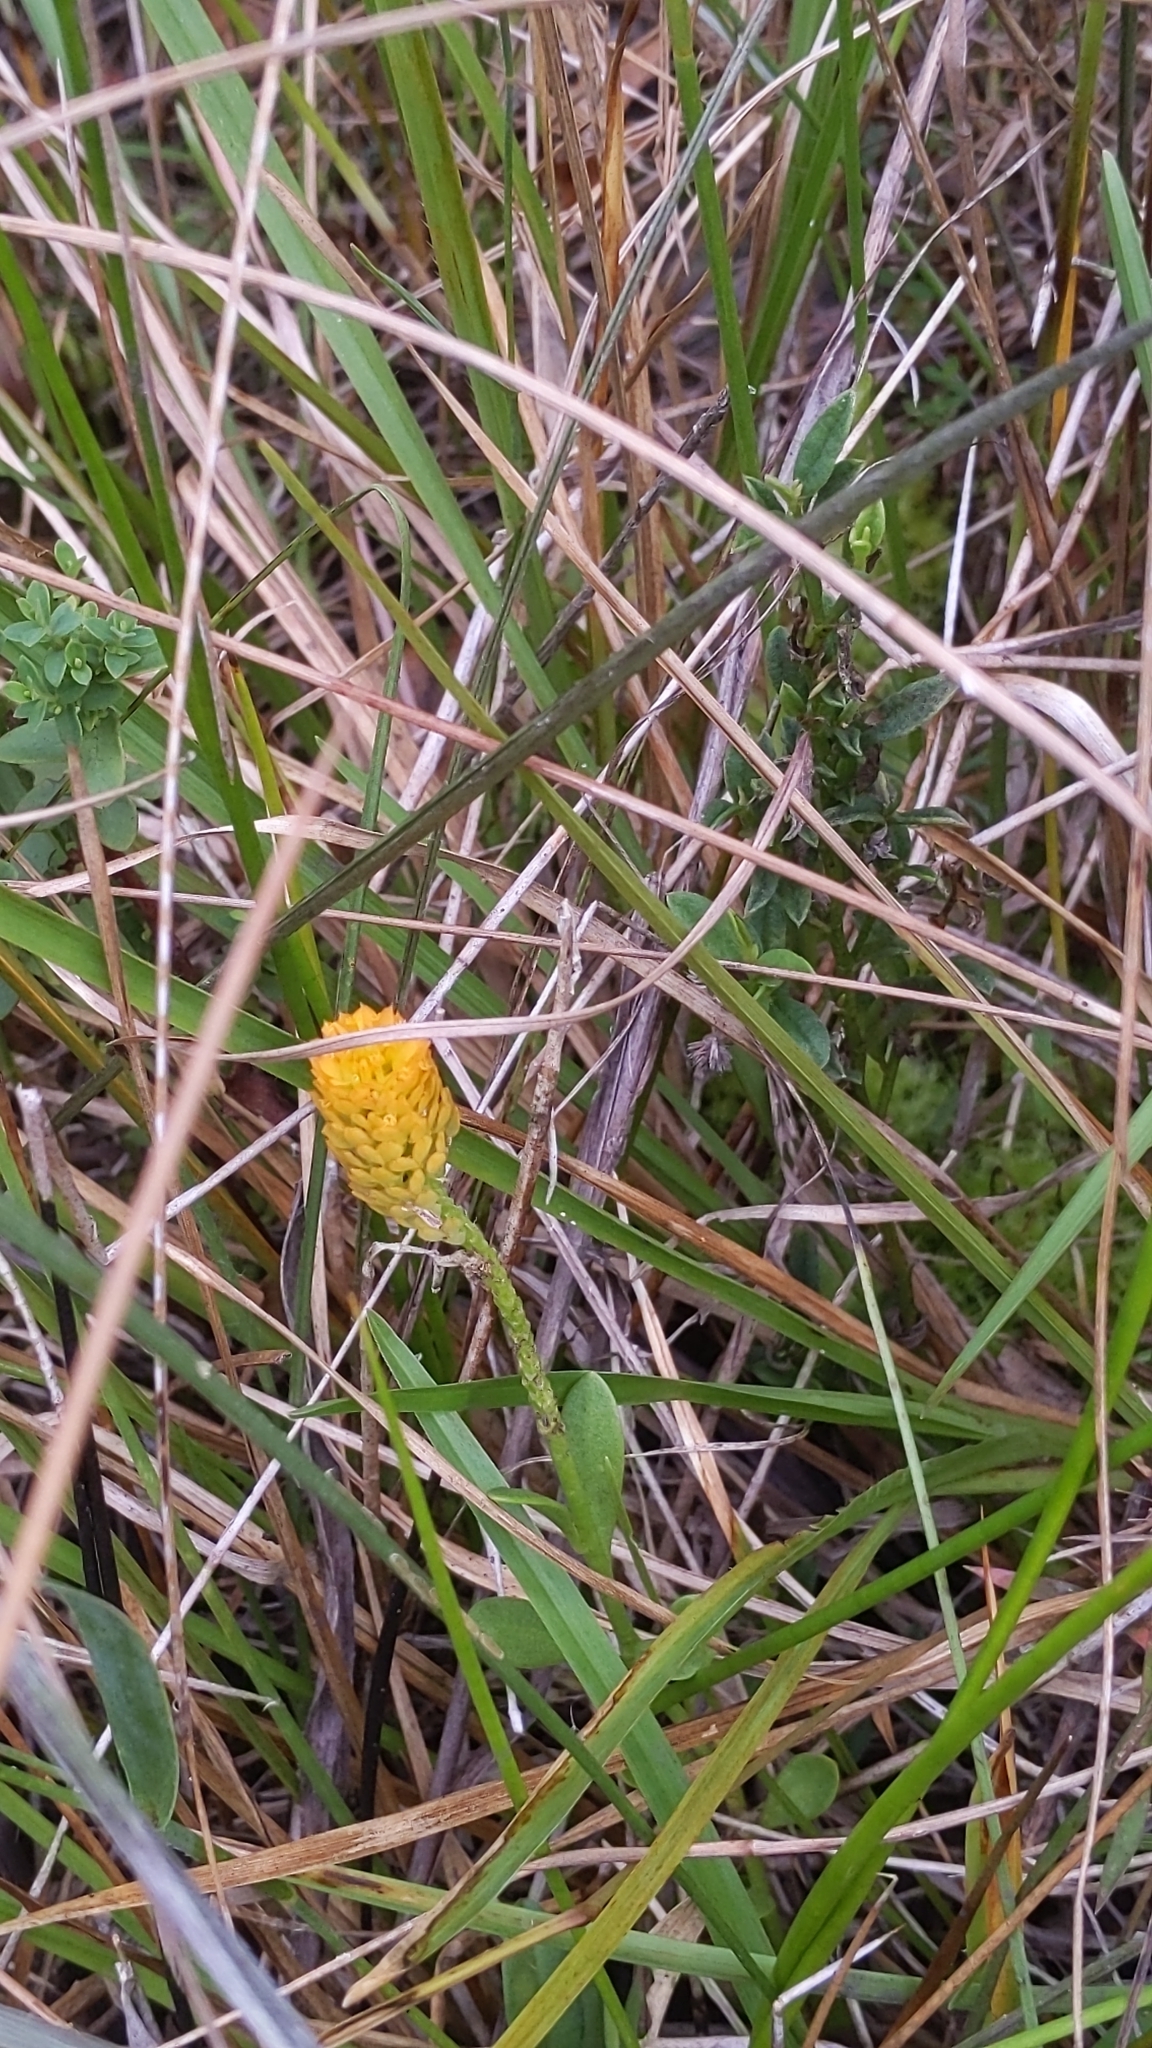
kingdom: Plantae
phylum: Tracheophyta
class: Magnoliopsida
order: Fabales
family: Polygalaceae
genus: Polygala
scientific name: Polygala lutea
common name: Orange milkwort
